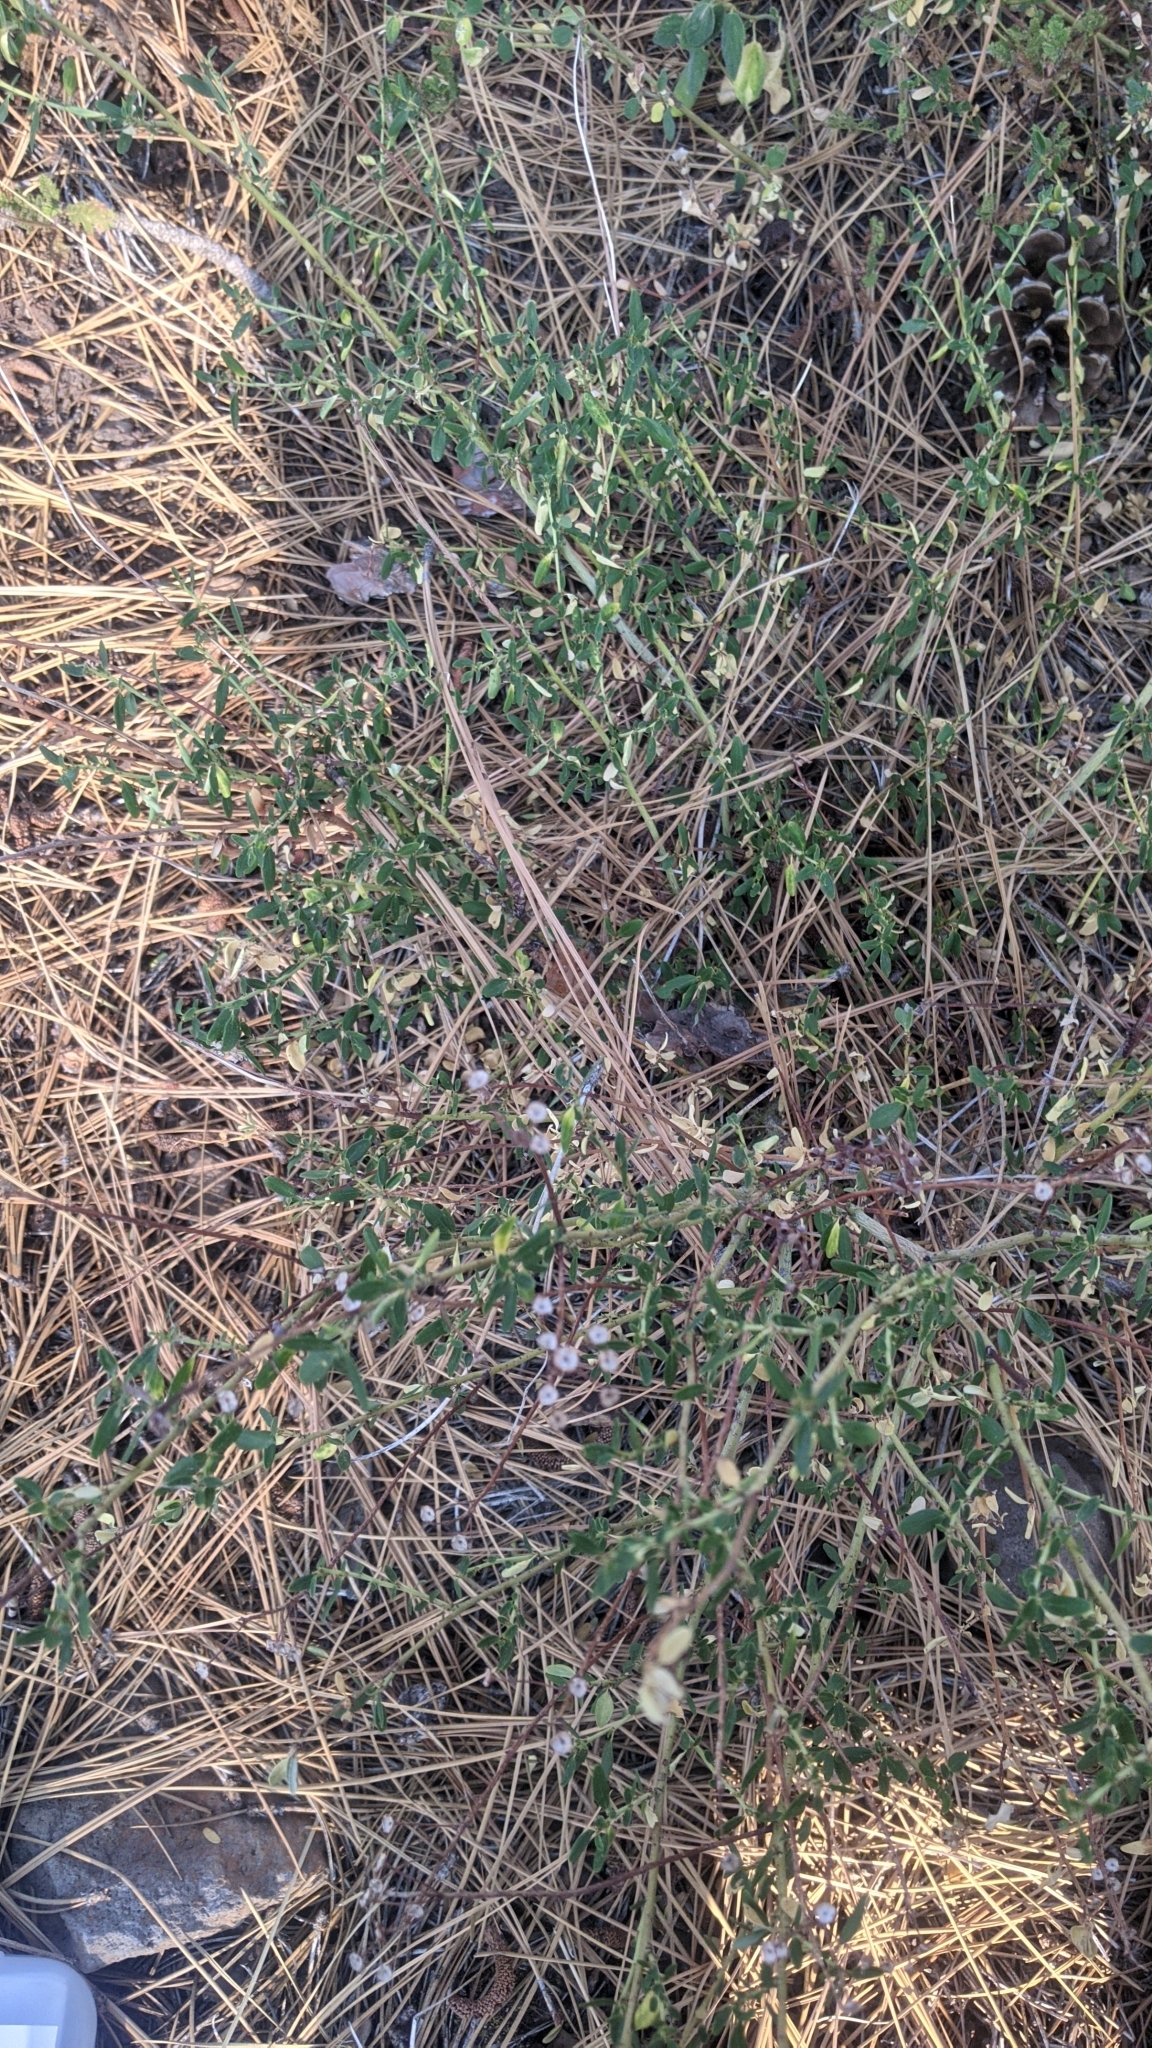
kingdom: Plantae
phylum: Tracheophyta
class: Magnoliopsida
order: Rosales
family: Rhamnaceae
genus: Ceanothus
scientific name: Ceanothus parvifolius
